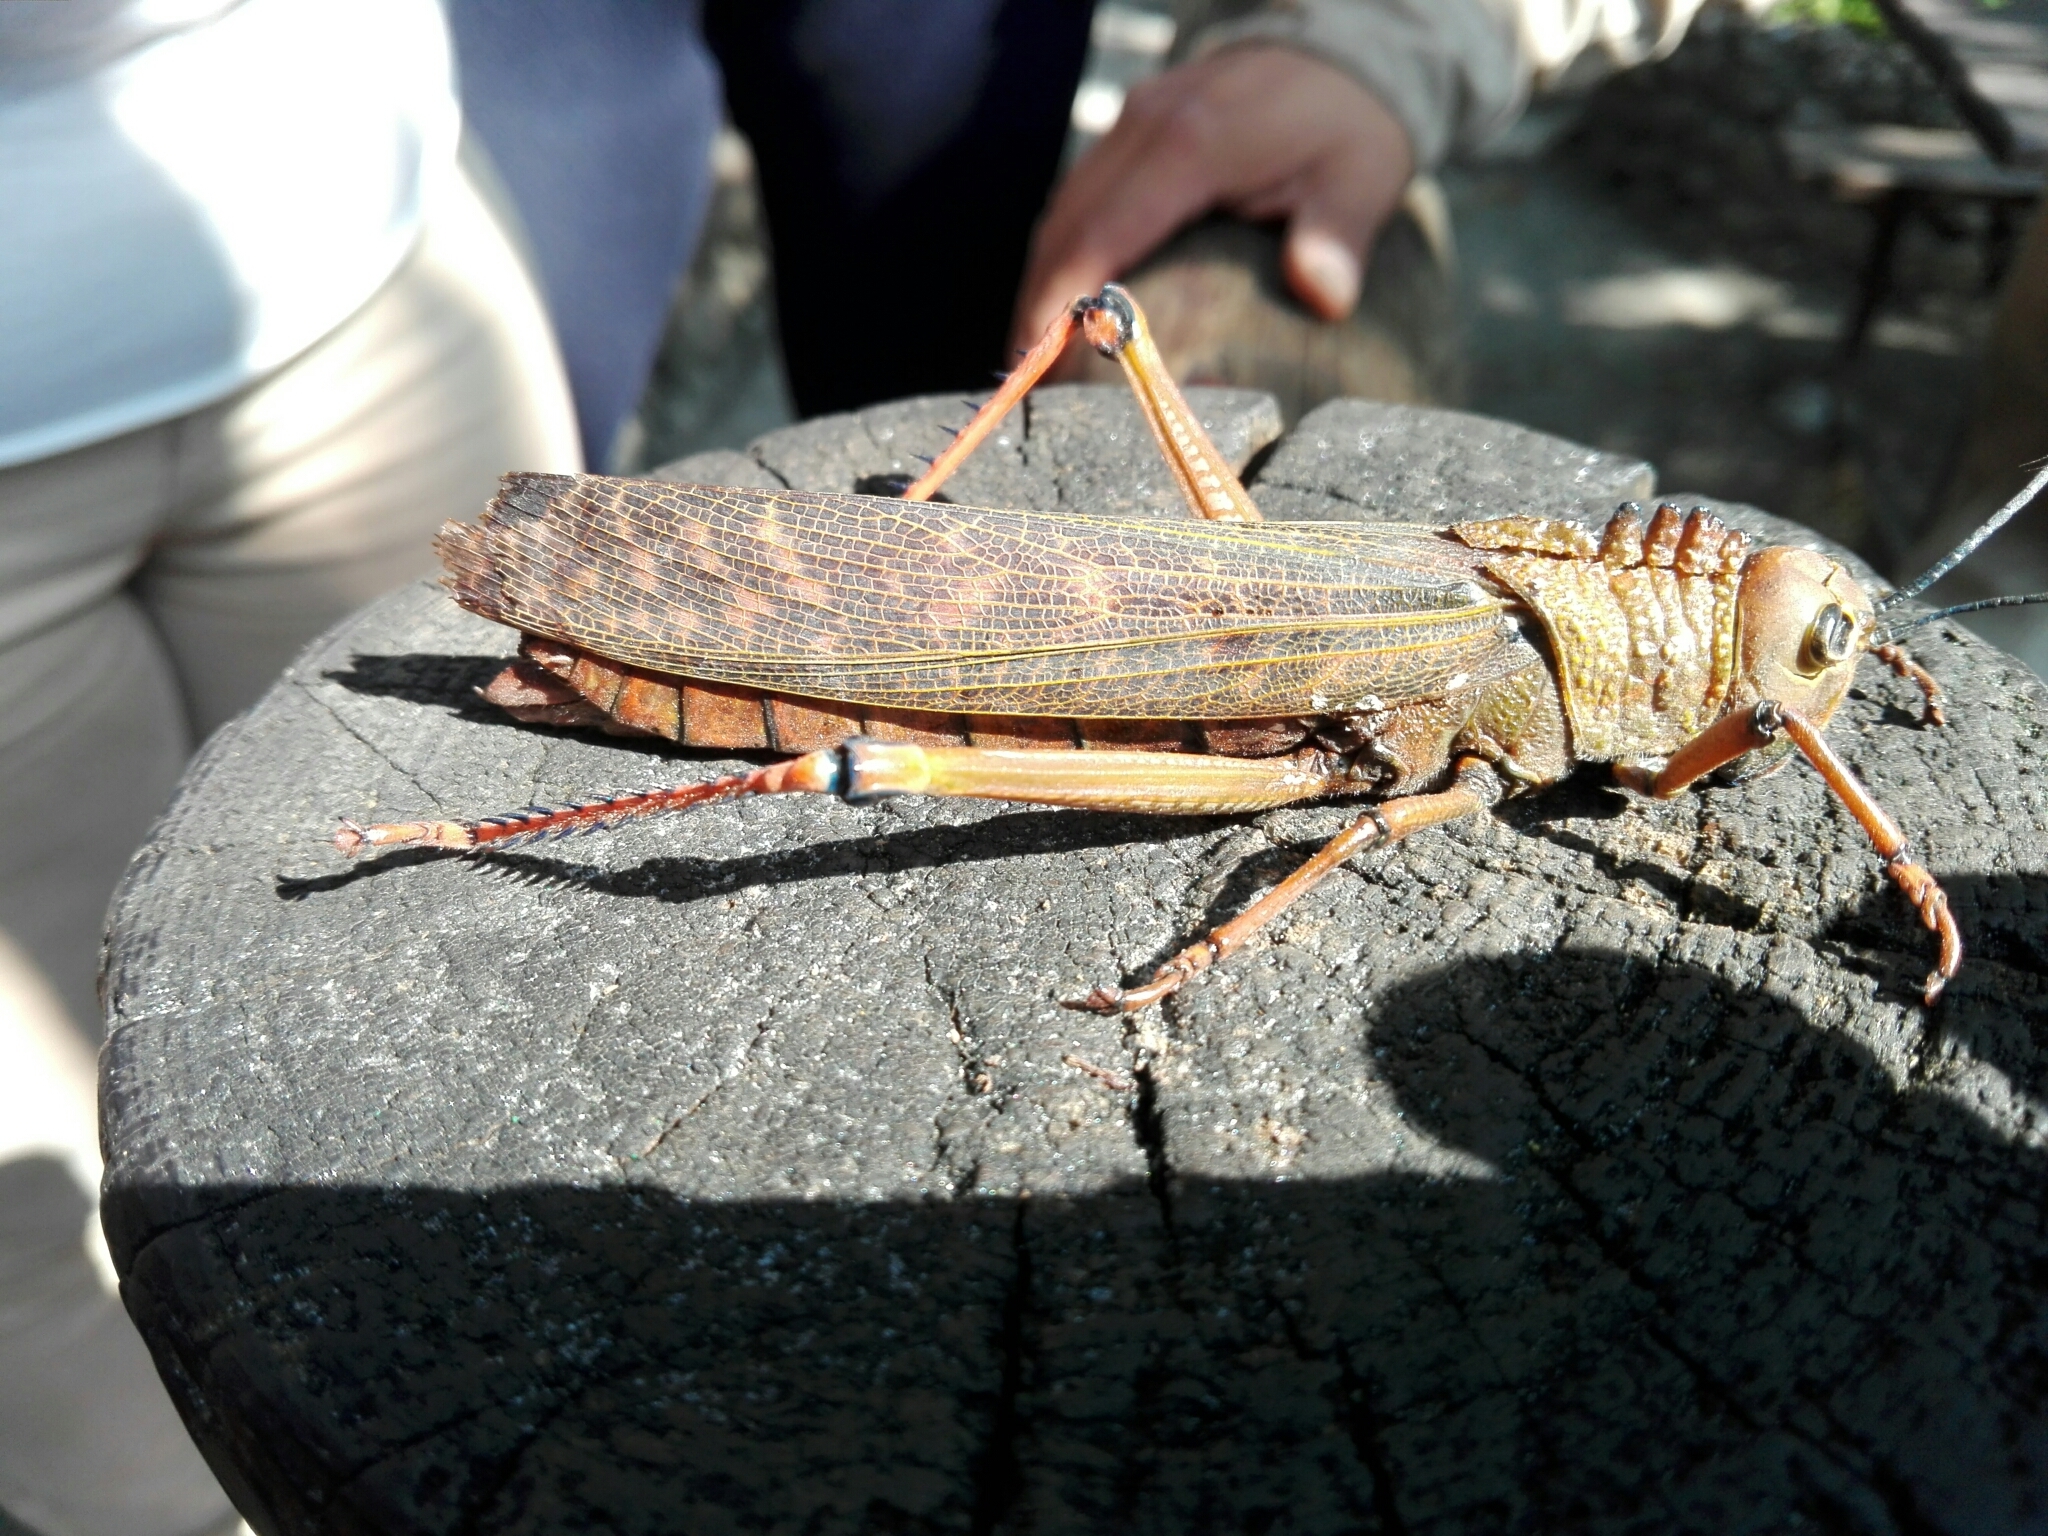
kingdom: Animalia
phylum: Arthropoda
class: Insecta
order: Orthoptera
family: Romaleidae
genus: Tropidacris
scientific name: Tropidacris cristata
